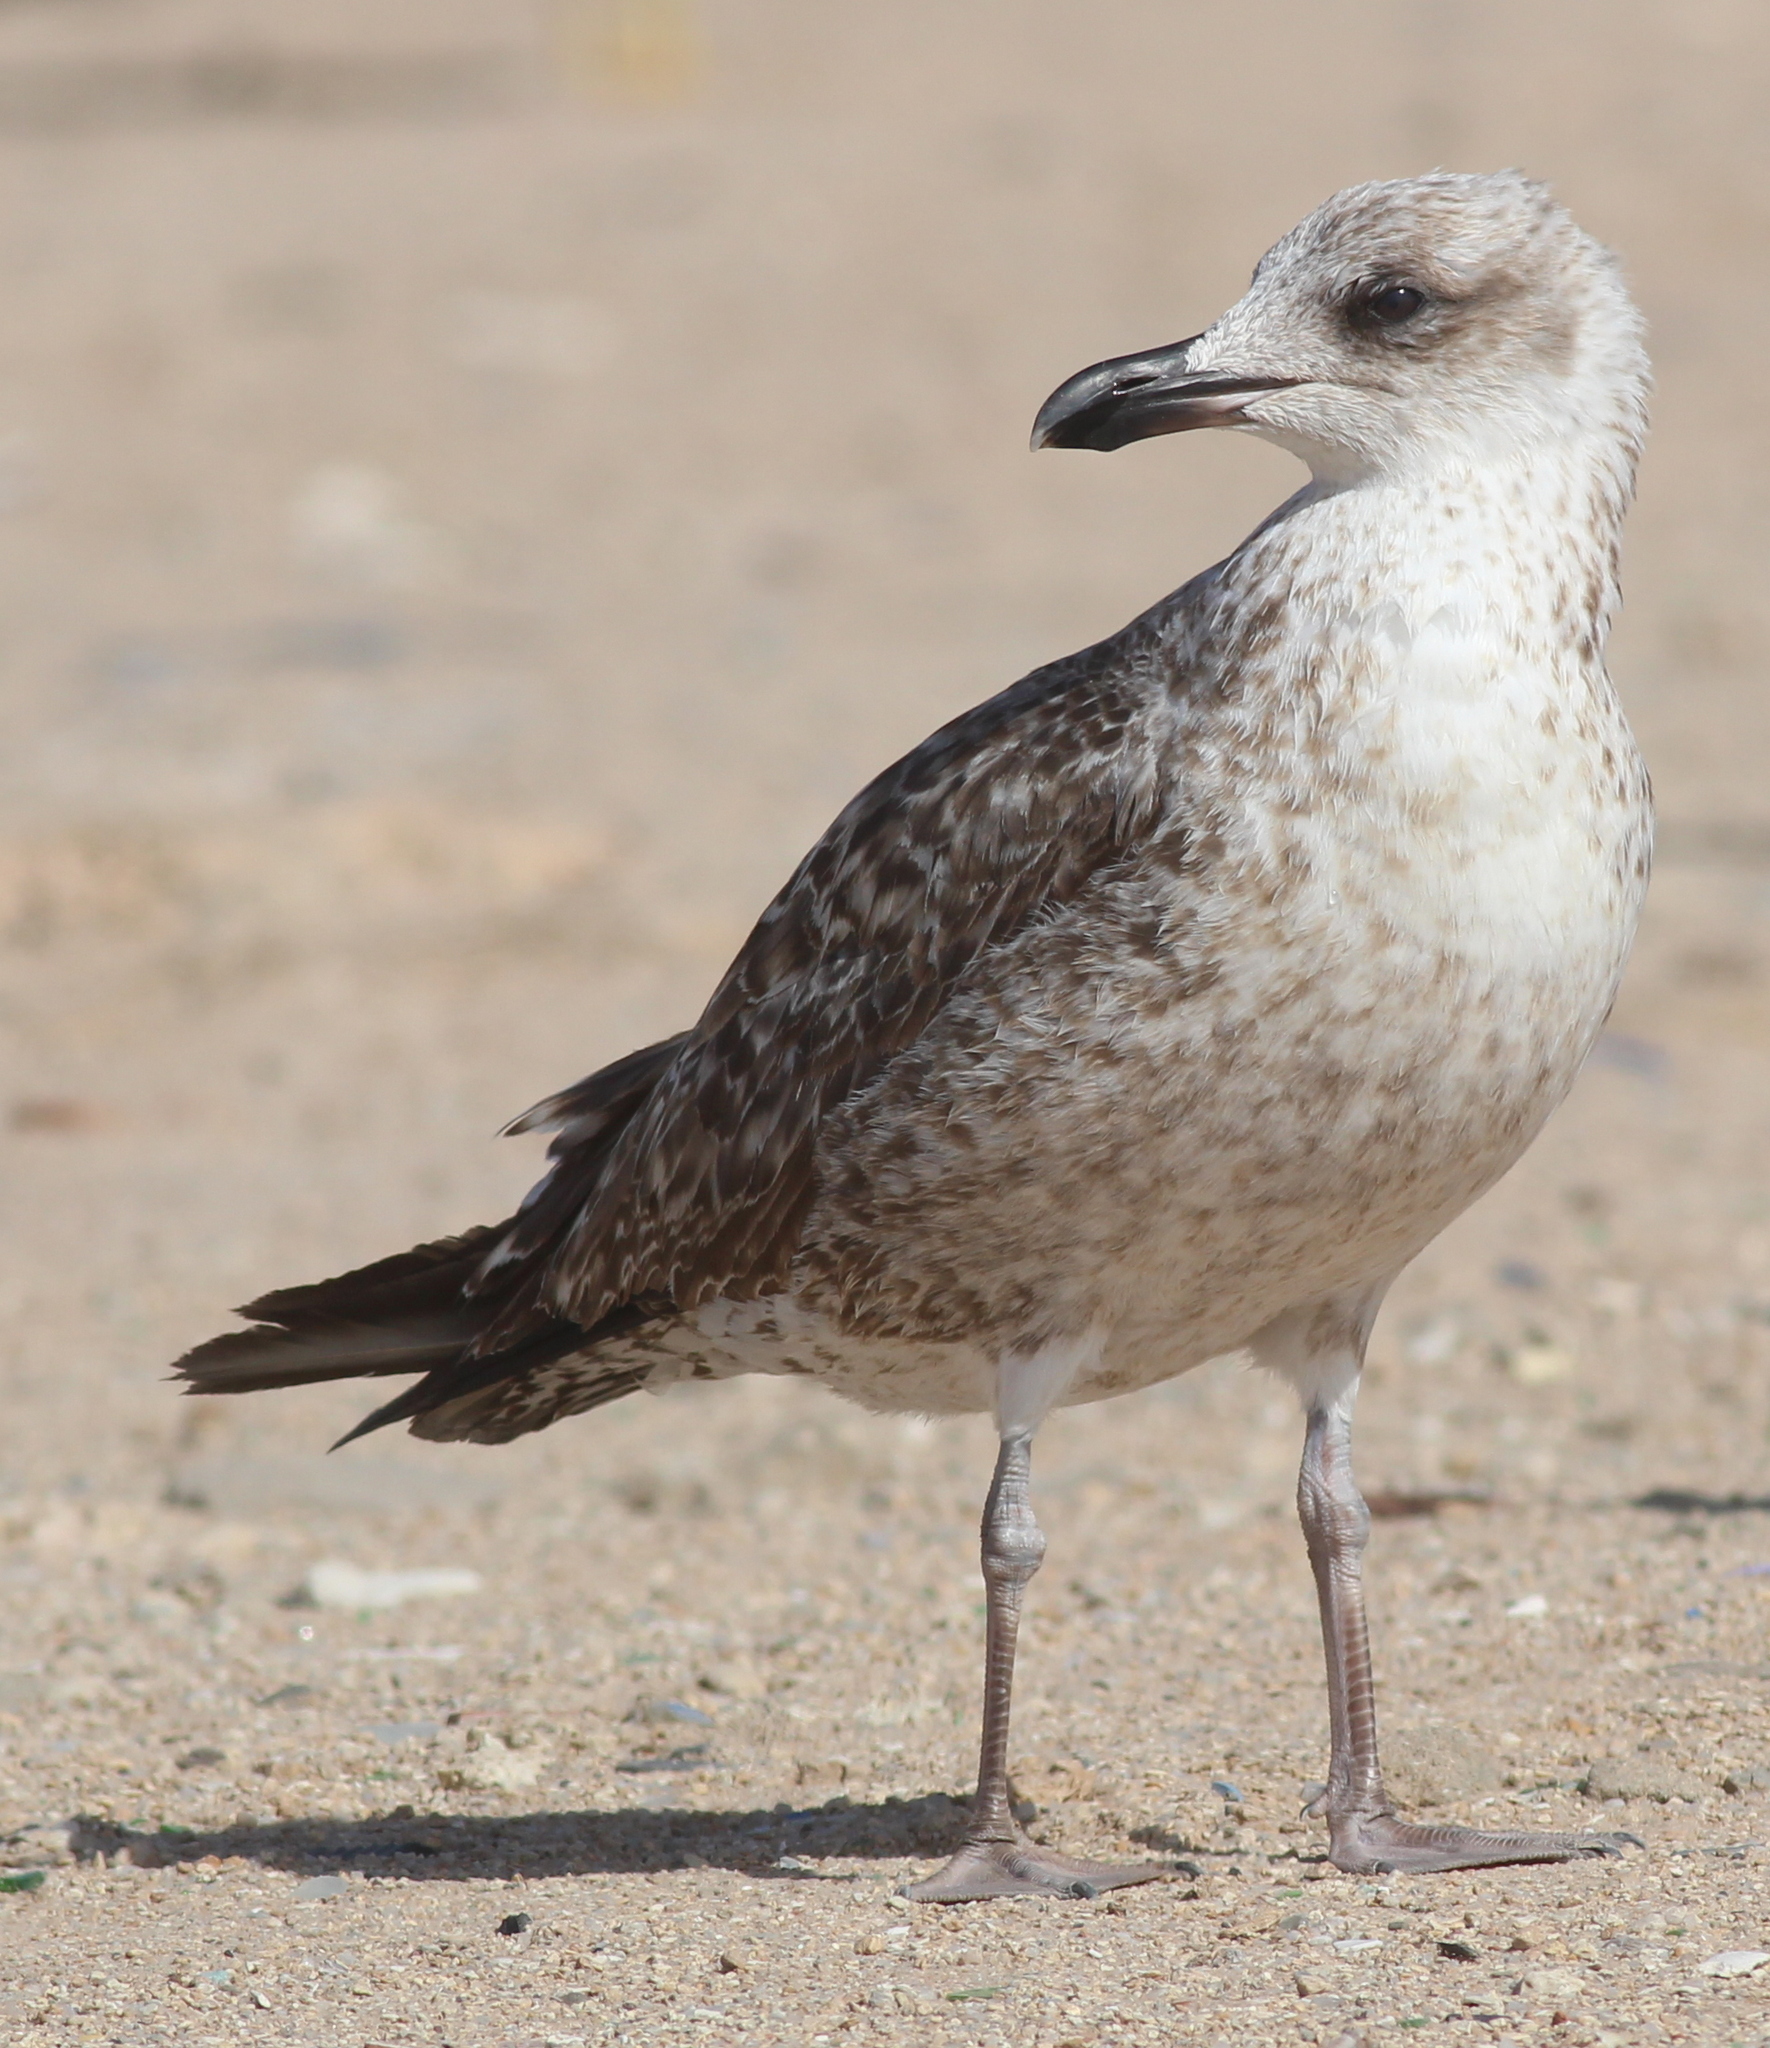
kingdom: Animalia
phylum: Chordata
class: Aves
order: Charadriiformes
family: Laridae
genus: Larus
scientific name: Larus fuscus
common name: Lesser black-backed gull
